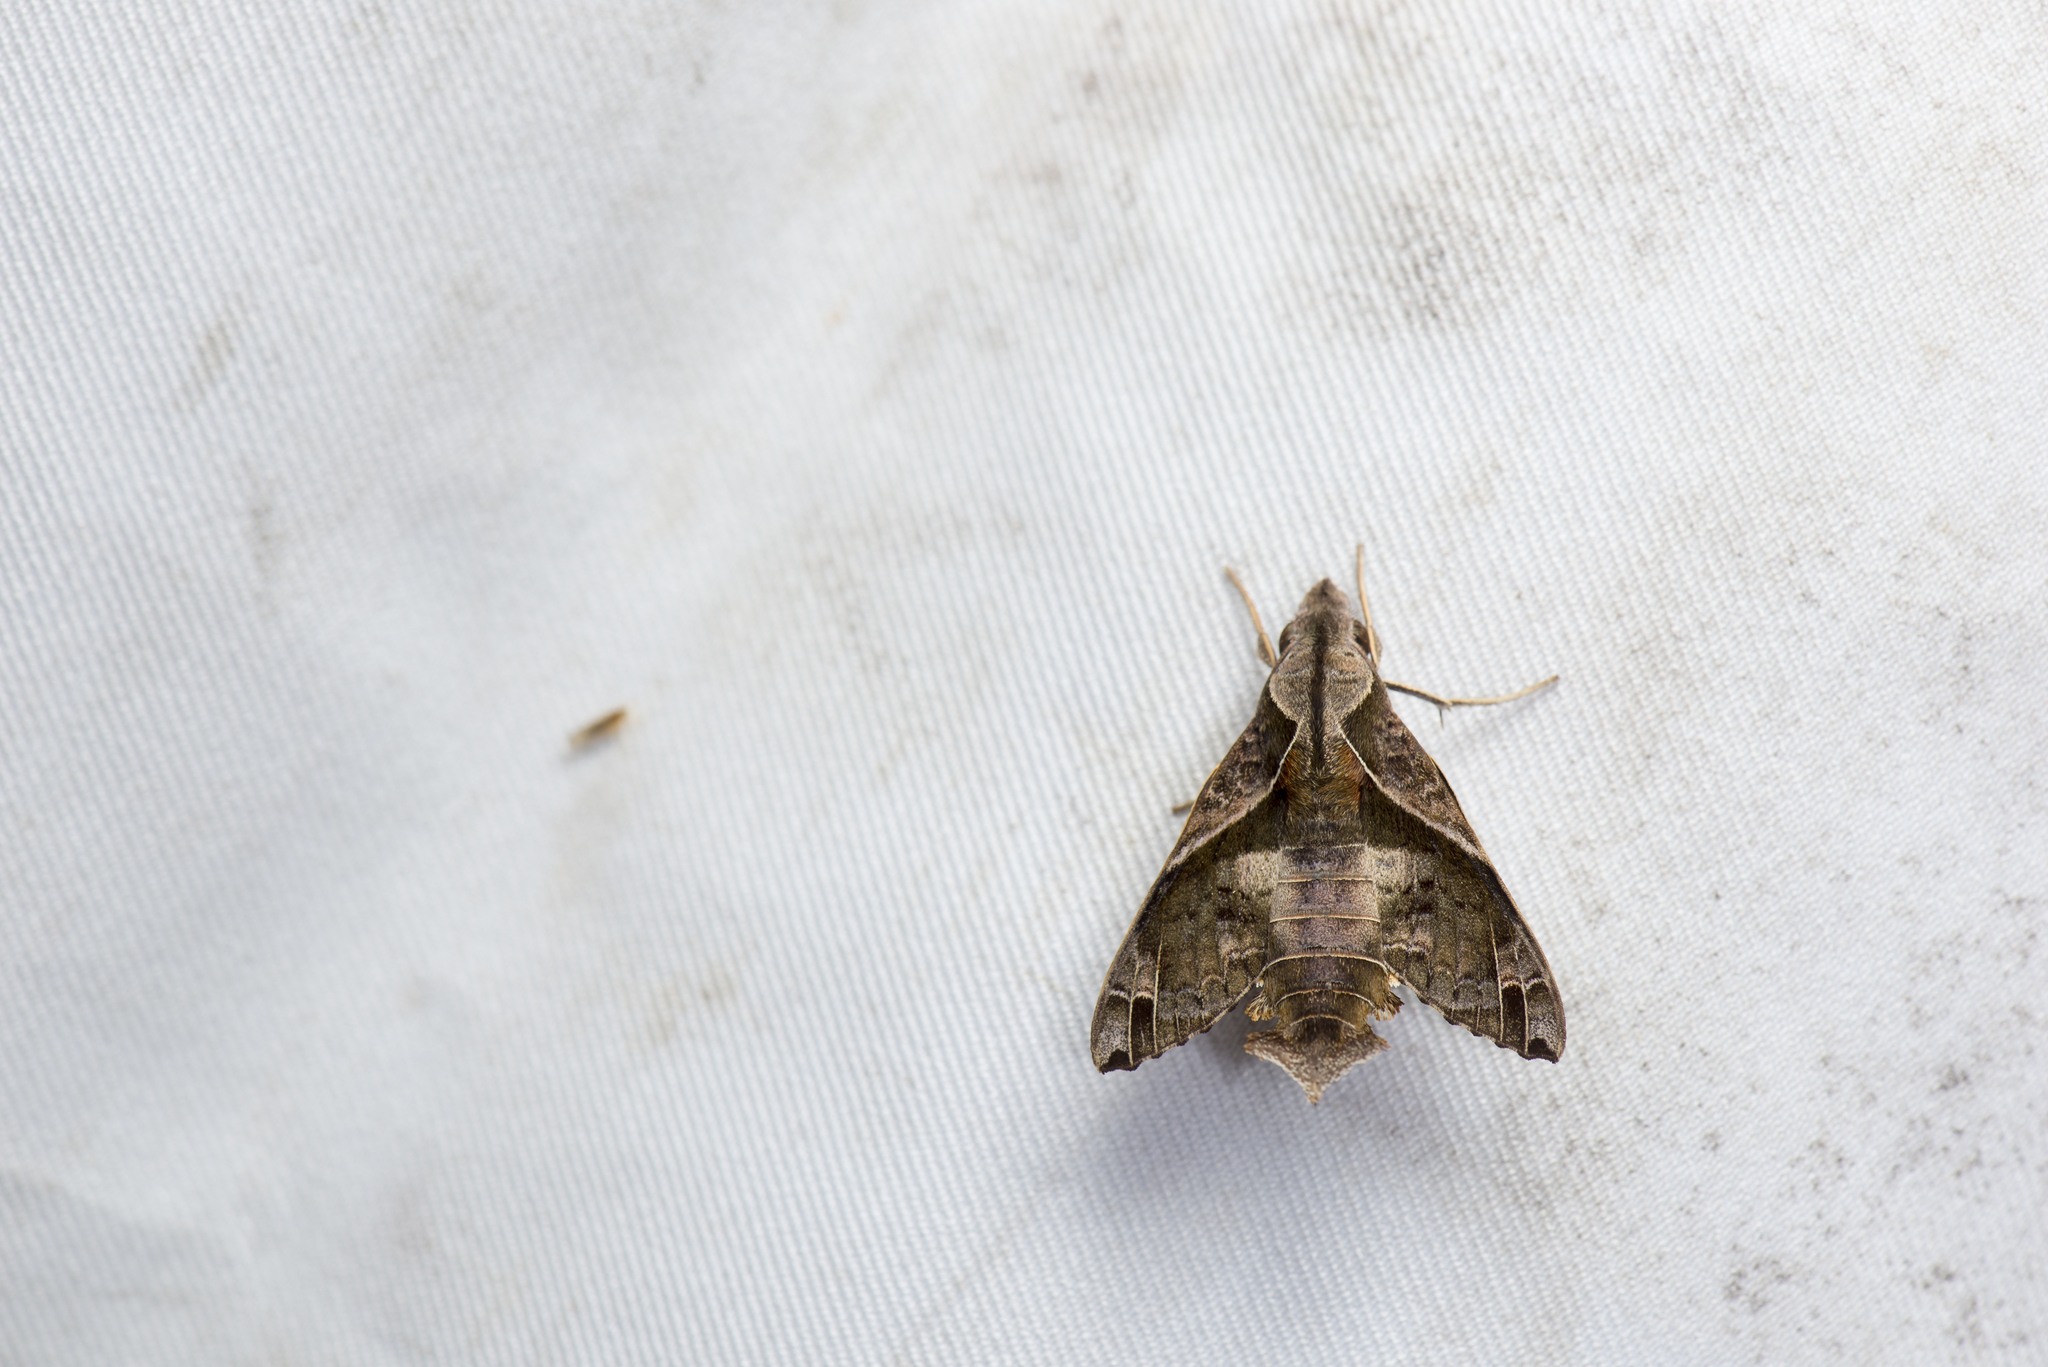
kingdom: Animalia
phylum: Arthropoda
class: Insecta
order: Lepidoptera
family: Sphingidae
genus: Macroglossum
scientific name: Macroglossum fritzei
